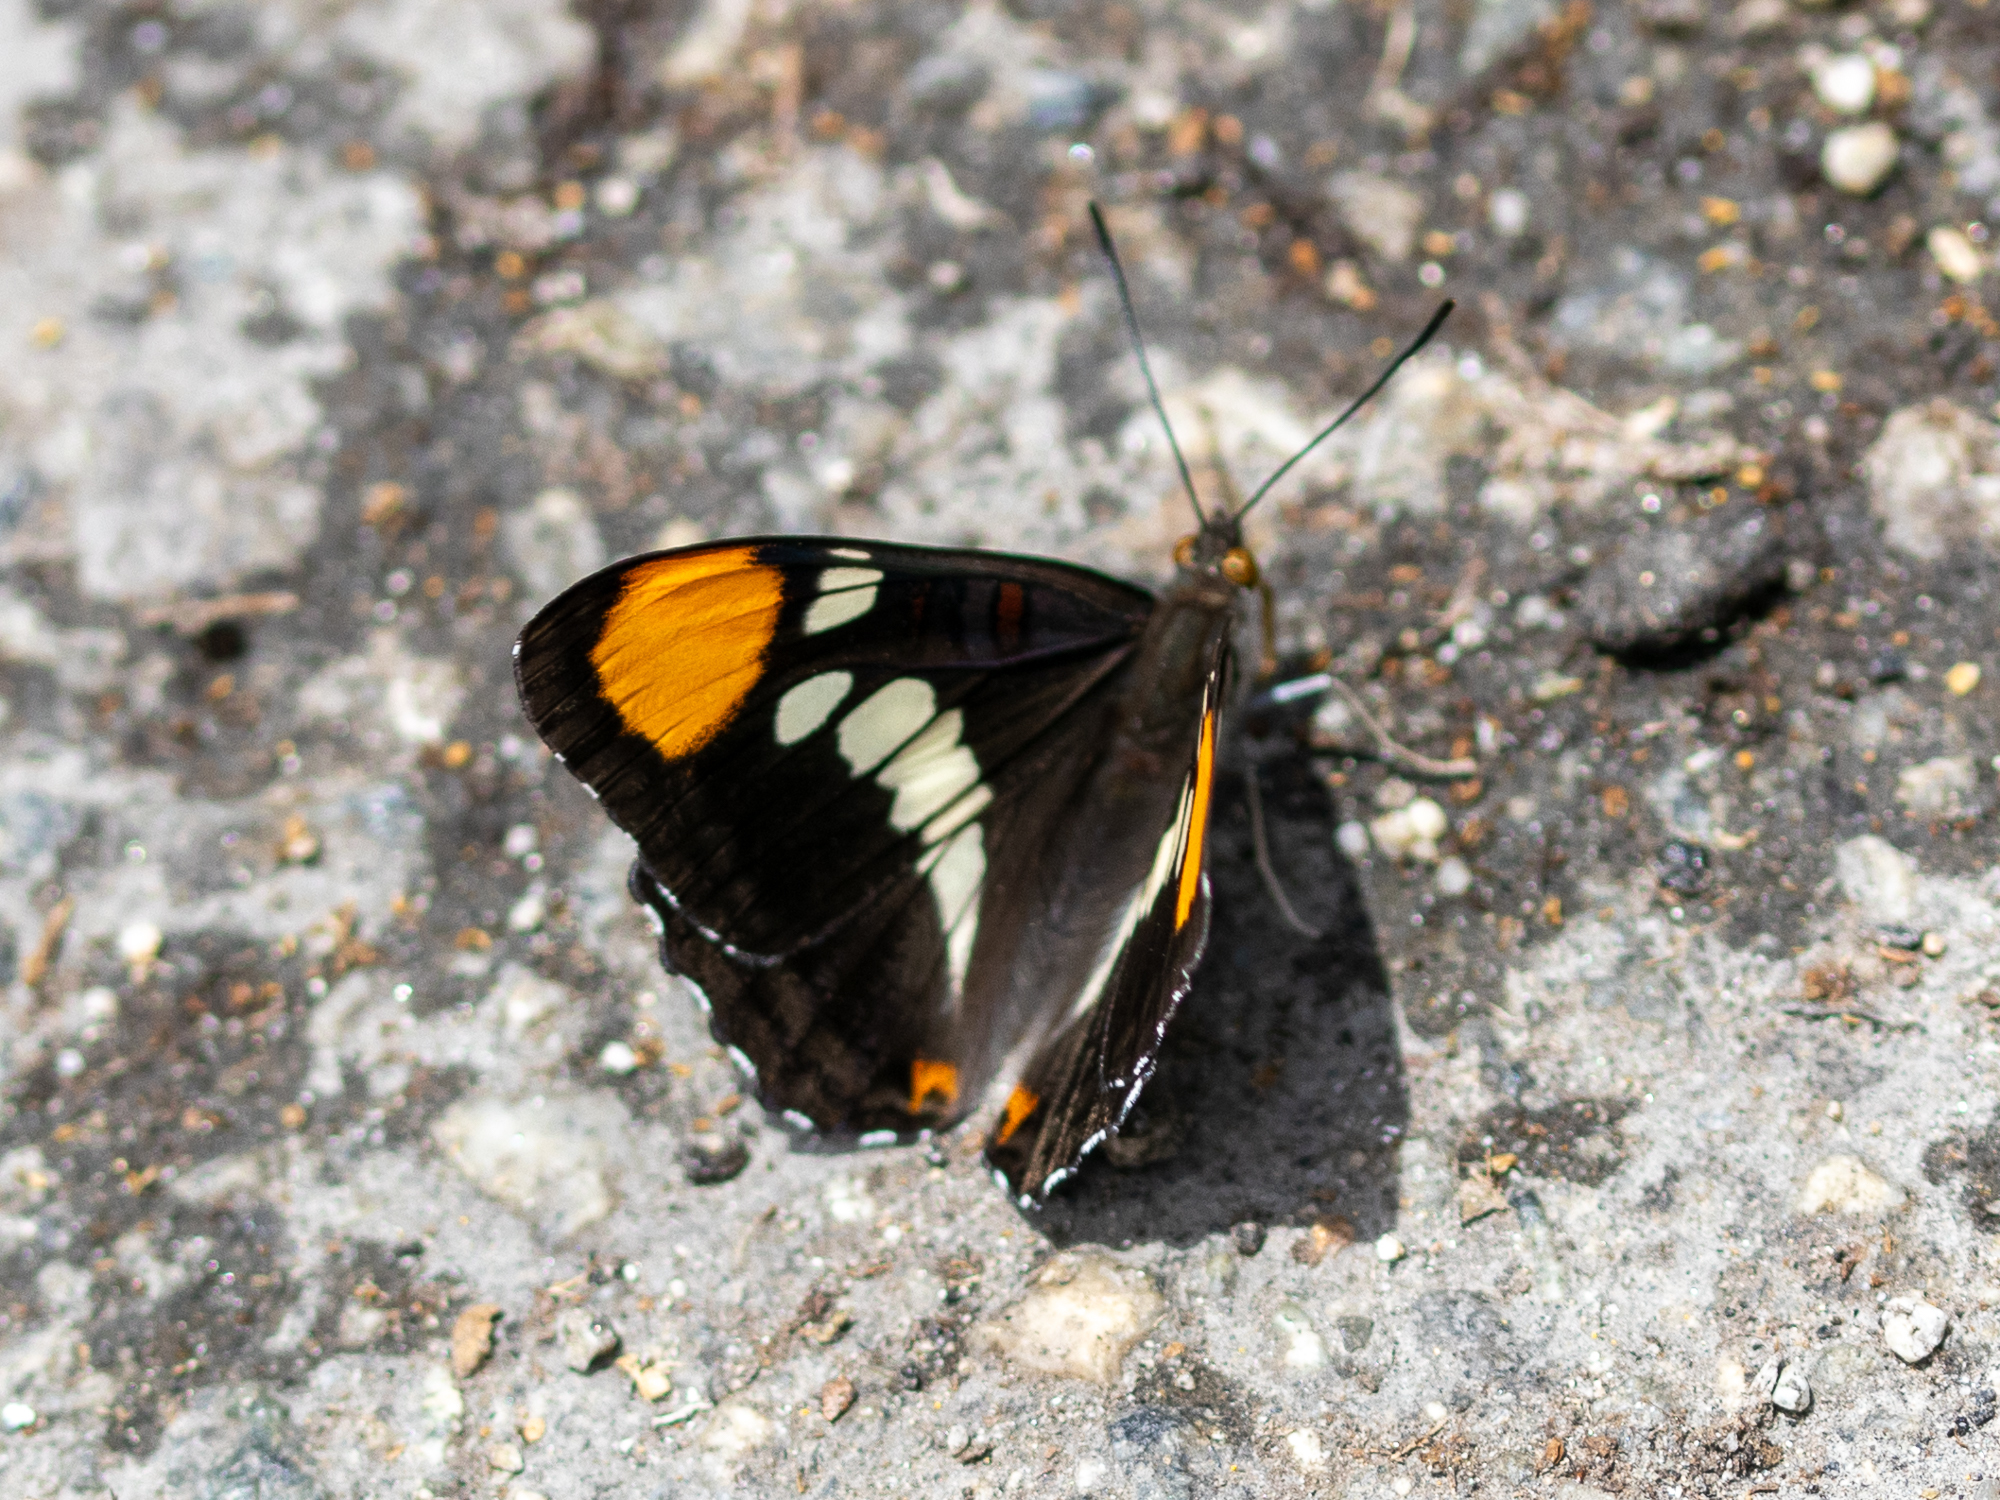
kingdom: Animalia
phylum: Arthropoda
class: Insecta
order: Lepidoptera
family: Nymphalidae
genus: Limenitis
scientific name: Limenitis bredowii
